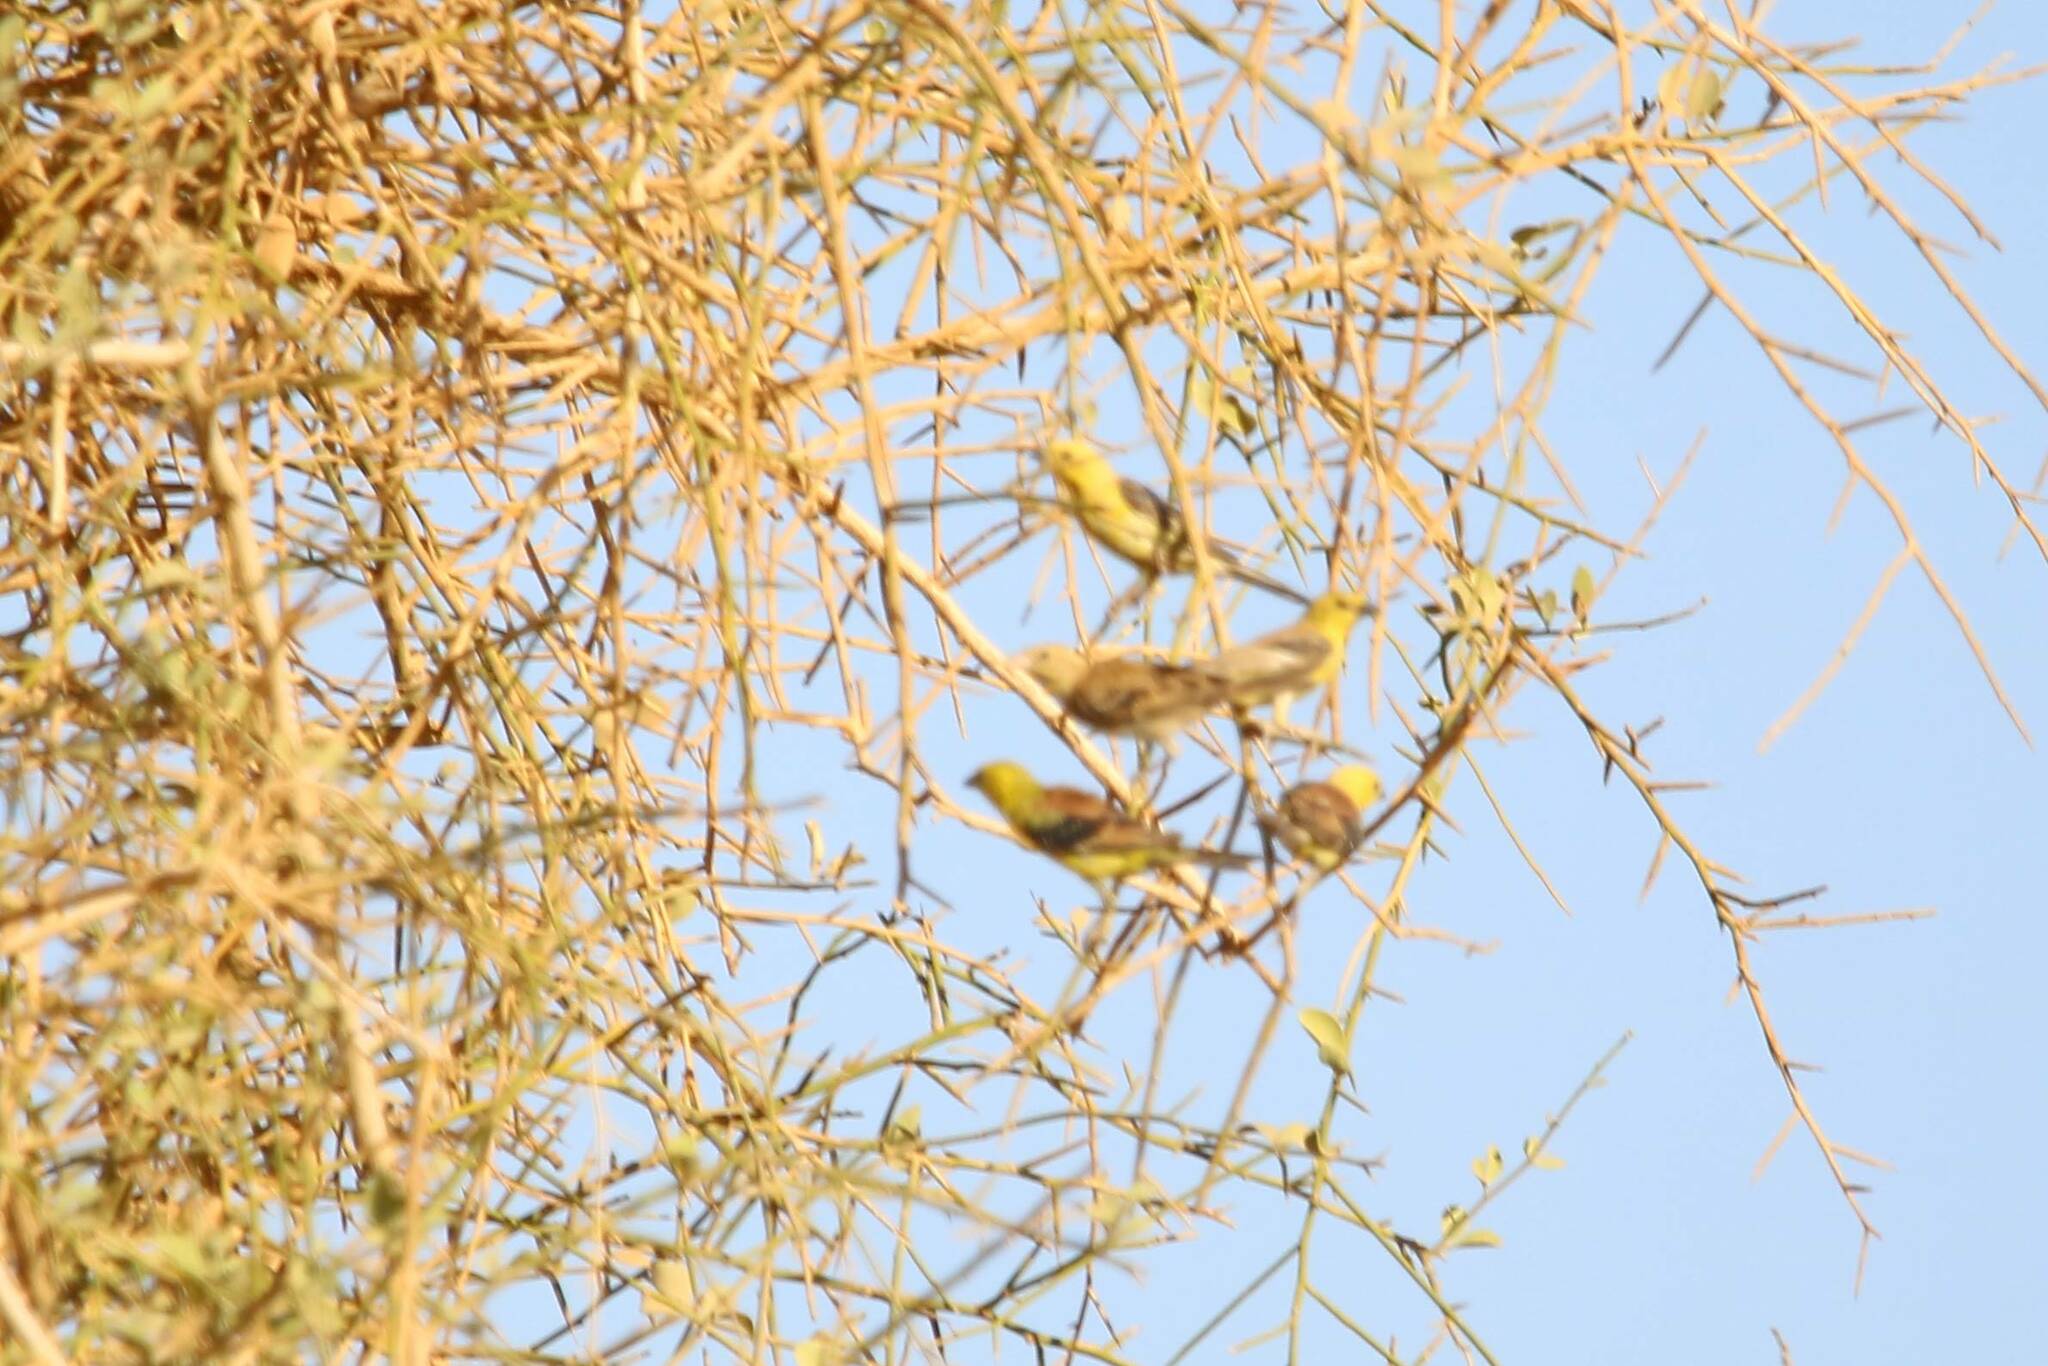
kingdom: Animalia
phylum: Chordata
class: Aves
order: Passeriformes
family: Passeridae
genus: Passer
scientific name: Passer luteus
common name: Sudan golden sparrow
